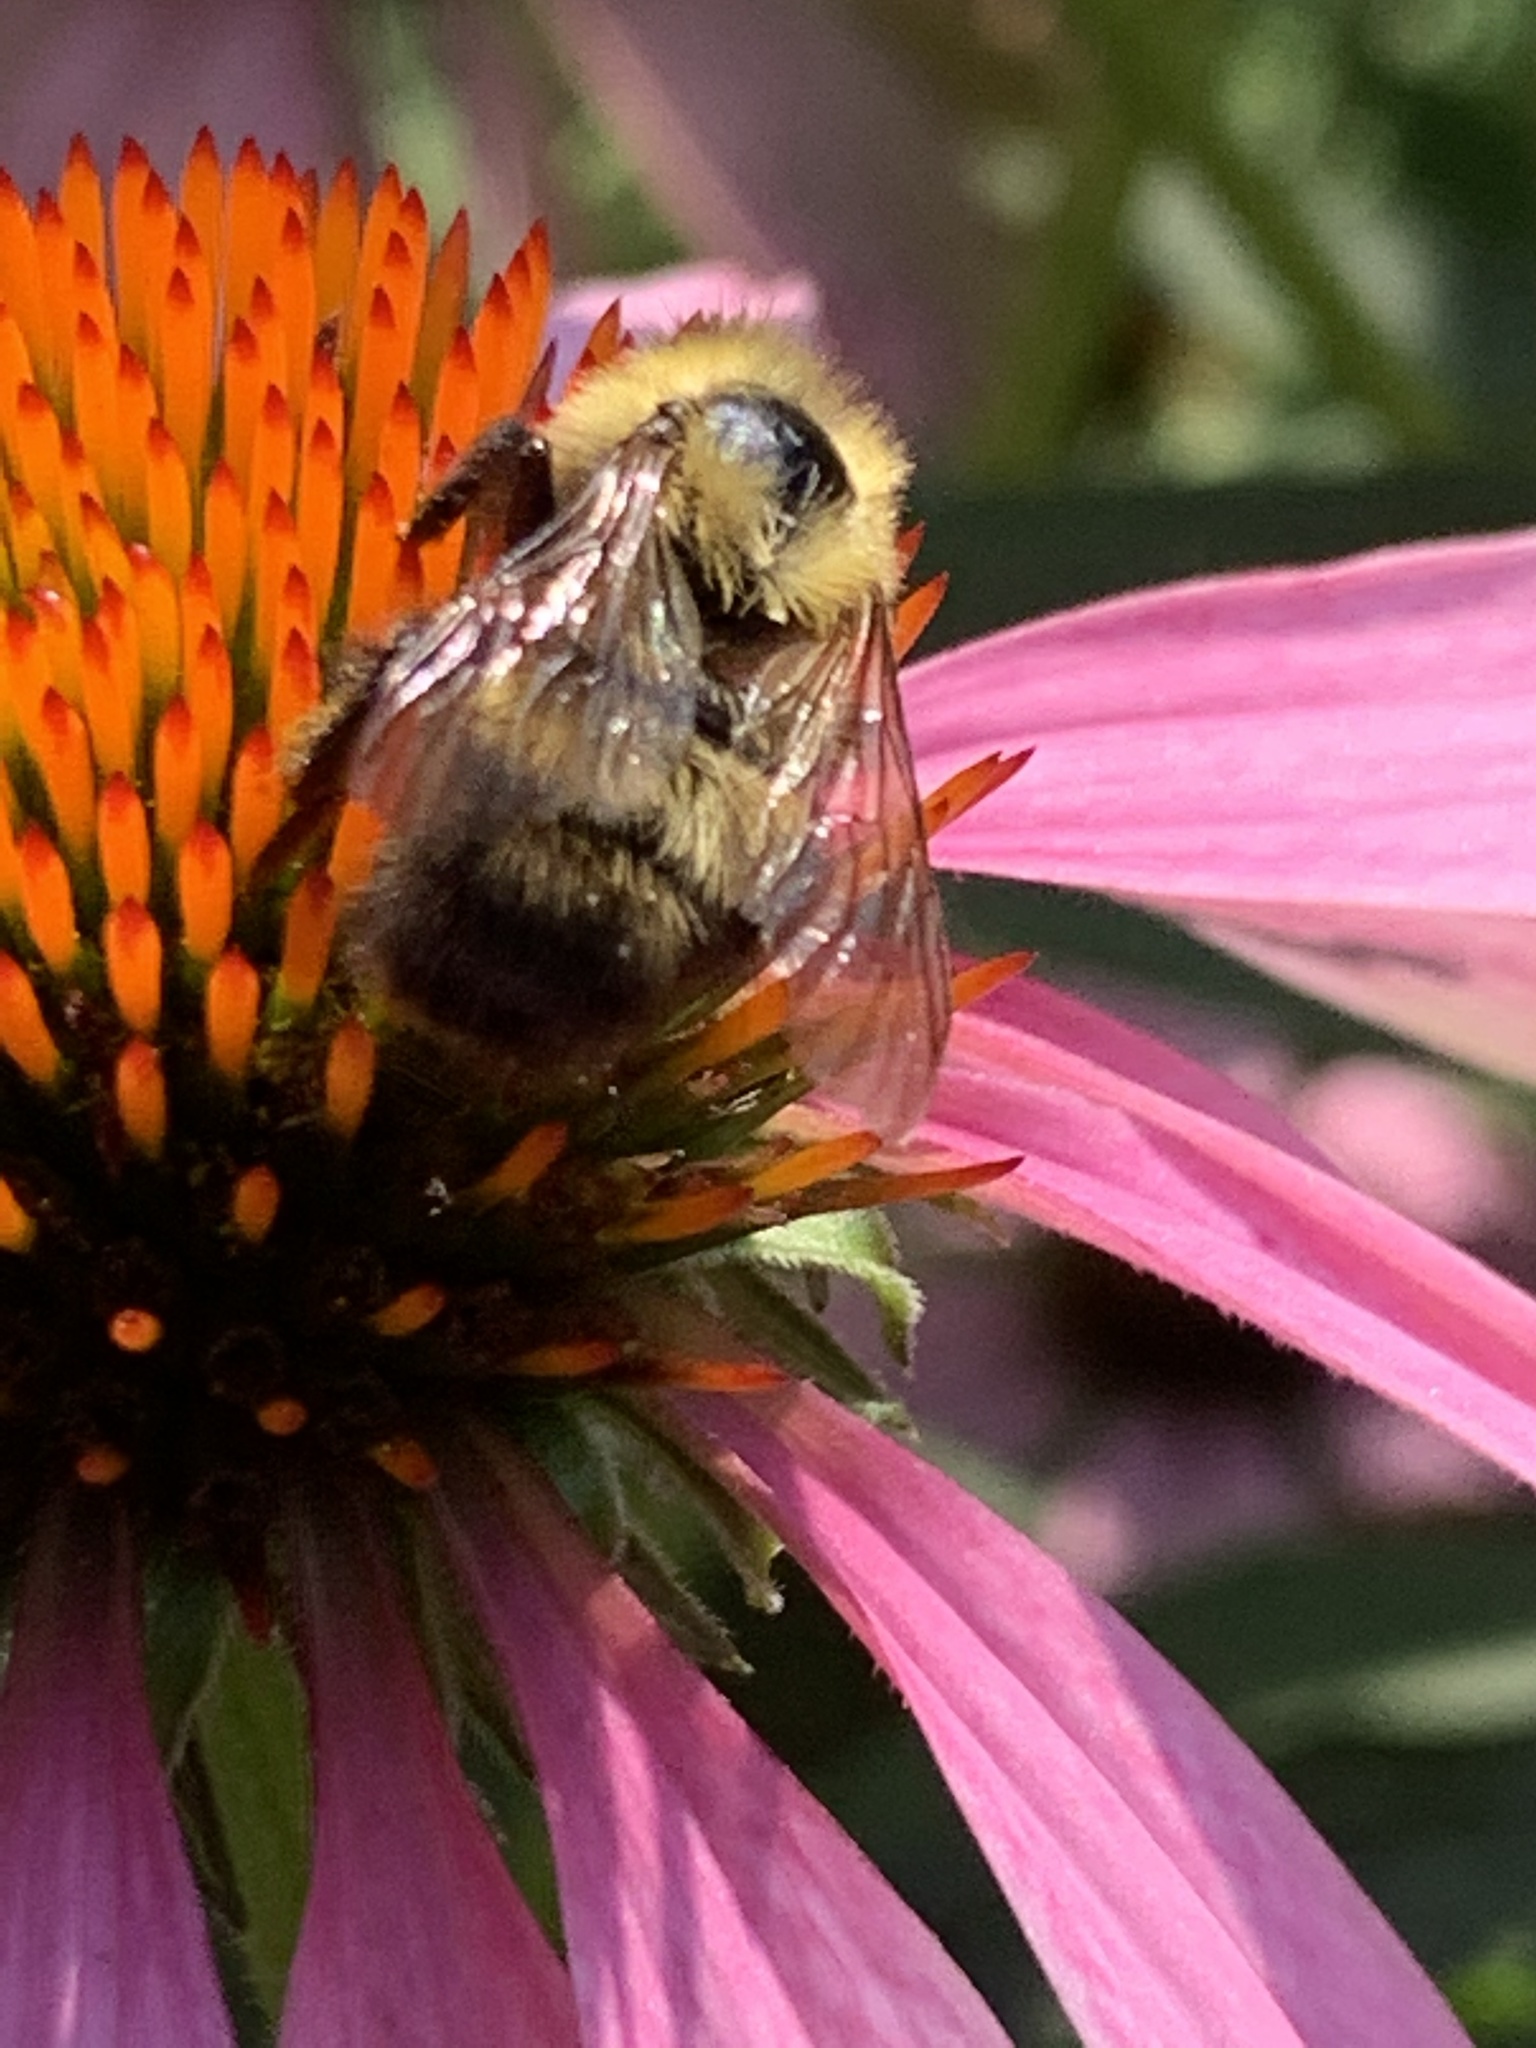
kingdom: Animalia
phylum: Arthropoda
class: Insecta
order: Hymenoptera
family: Apidae
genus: Bombus
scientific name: Bombus perplexus
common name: Confusing bumble bee
